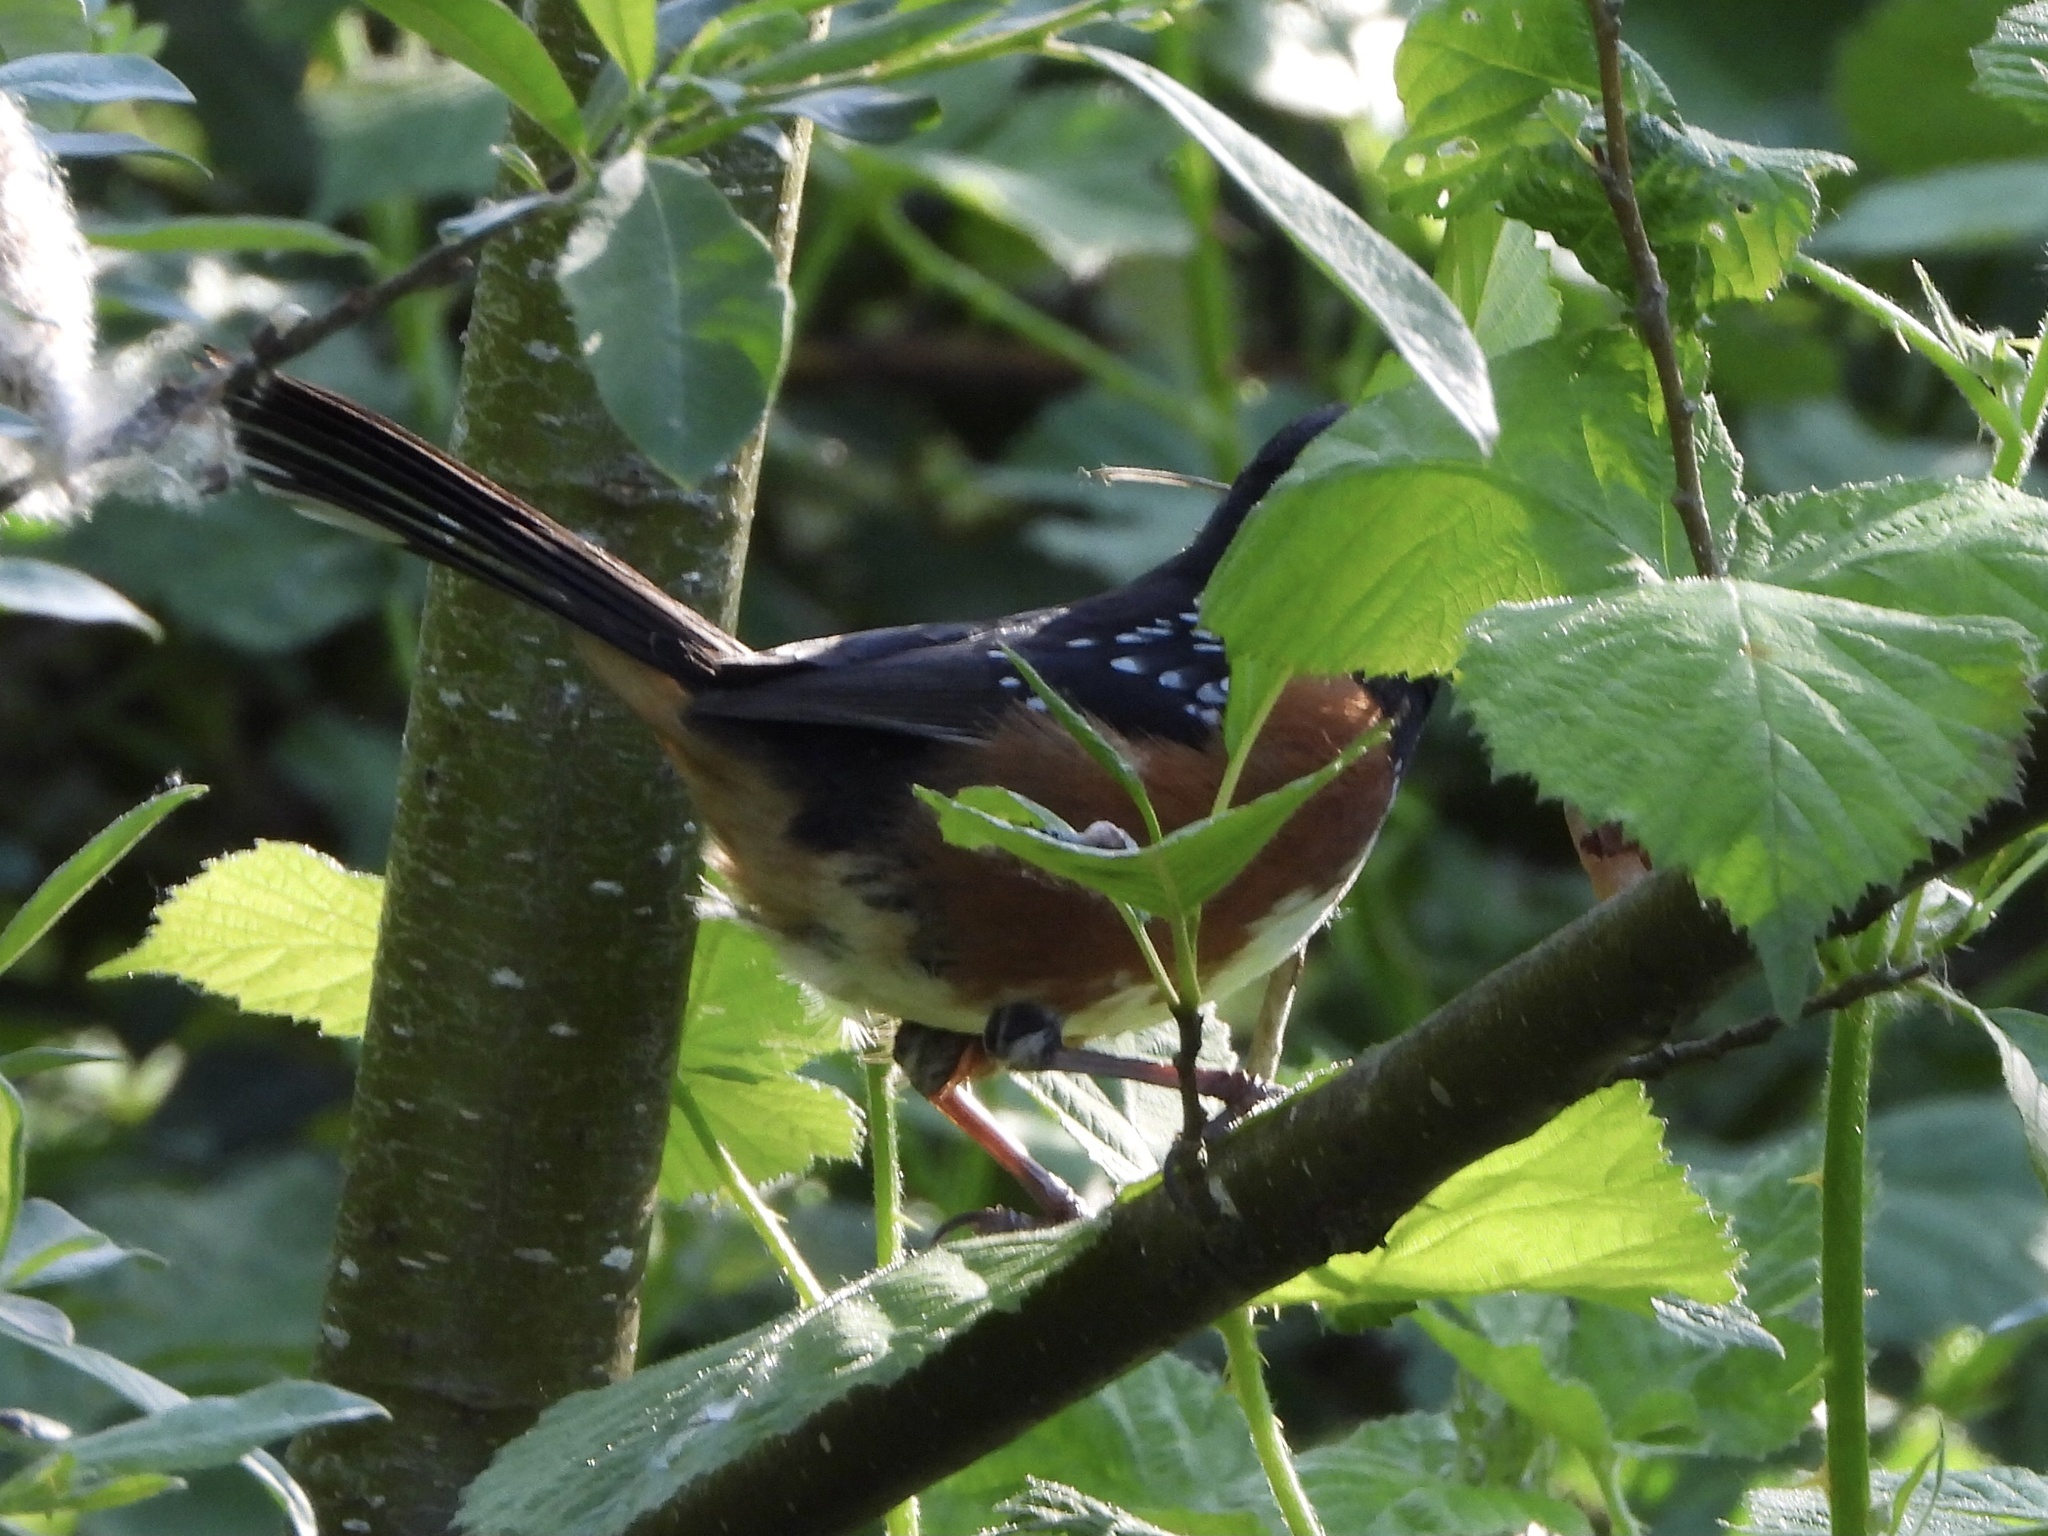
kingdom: Animalia
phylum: Chordata
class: Aves
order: Passeriformes
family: Passerellidae
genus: Pipilo
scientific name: Pipilo maculatus
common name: Spotted towhee
